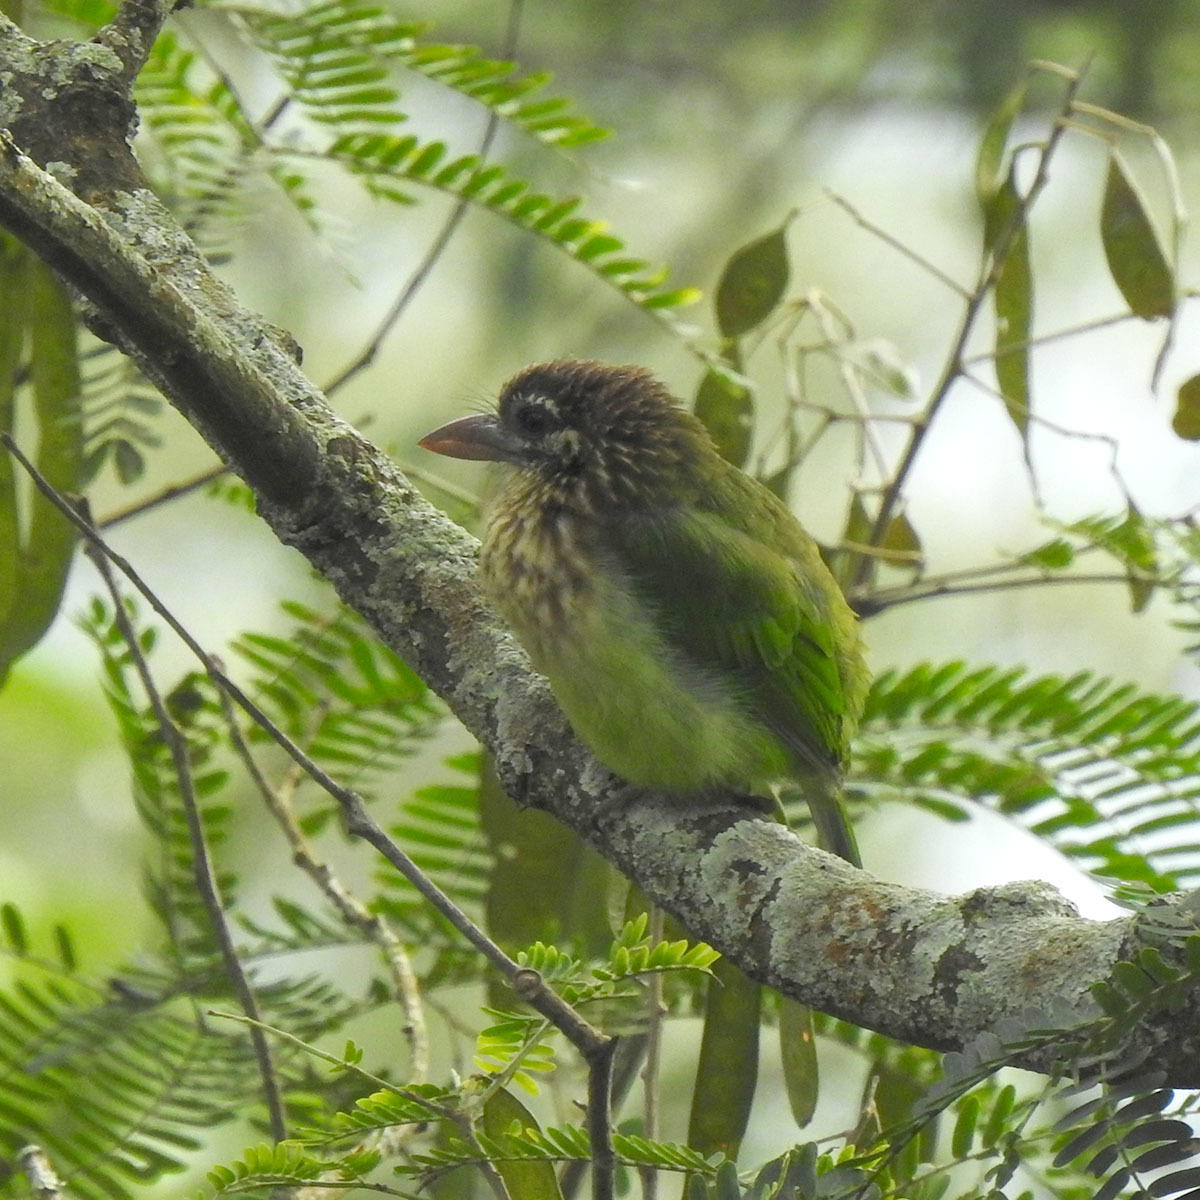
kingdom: Animalia
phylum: Chordata
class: Aves
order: Piciformes
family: Megalaimidae
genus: Psilopogon
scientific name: Psilopogon viridis
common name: White-cheeked barbet
